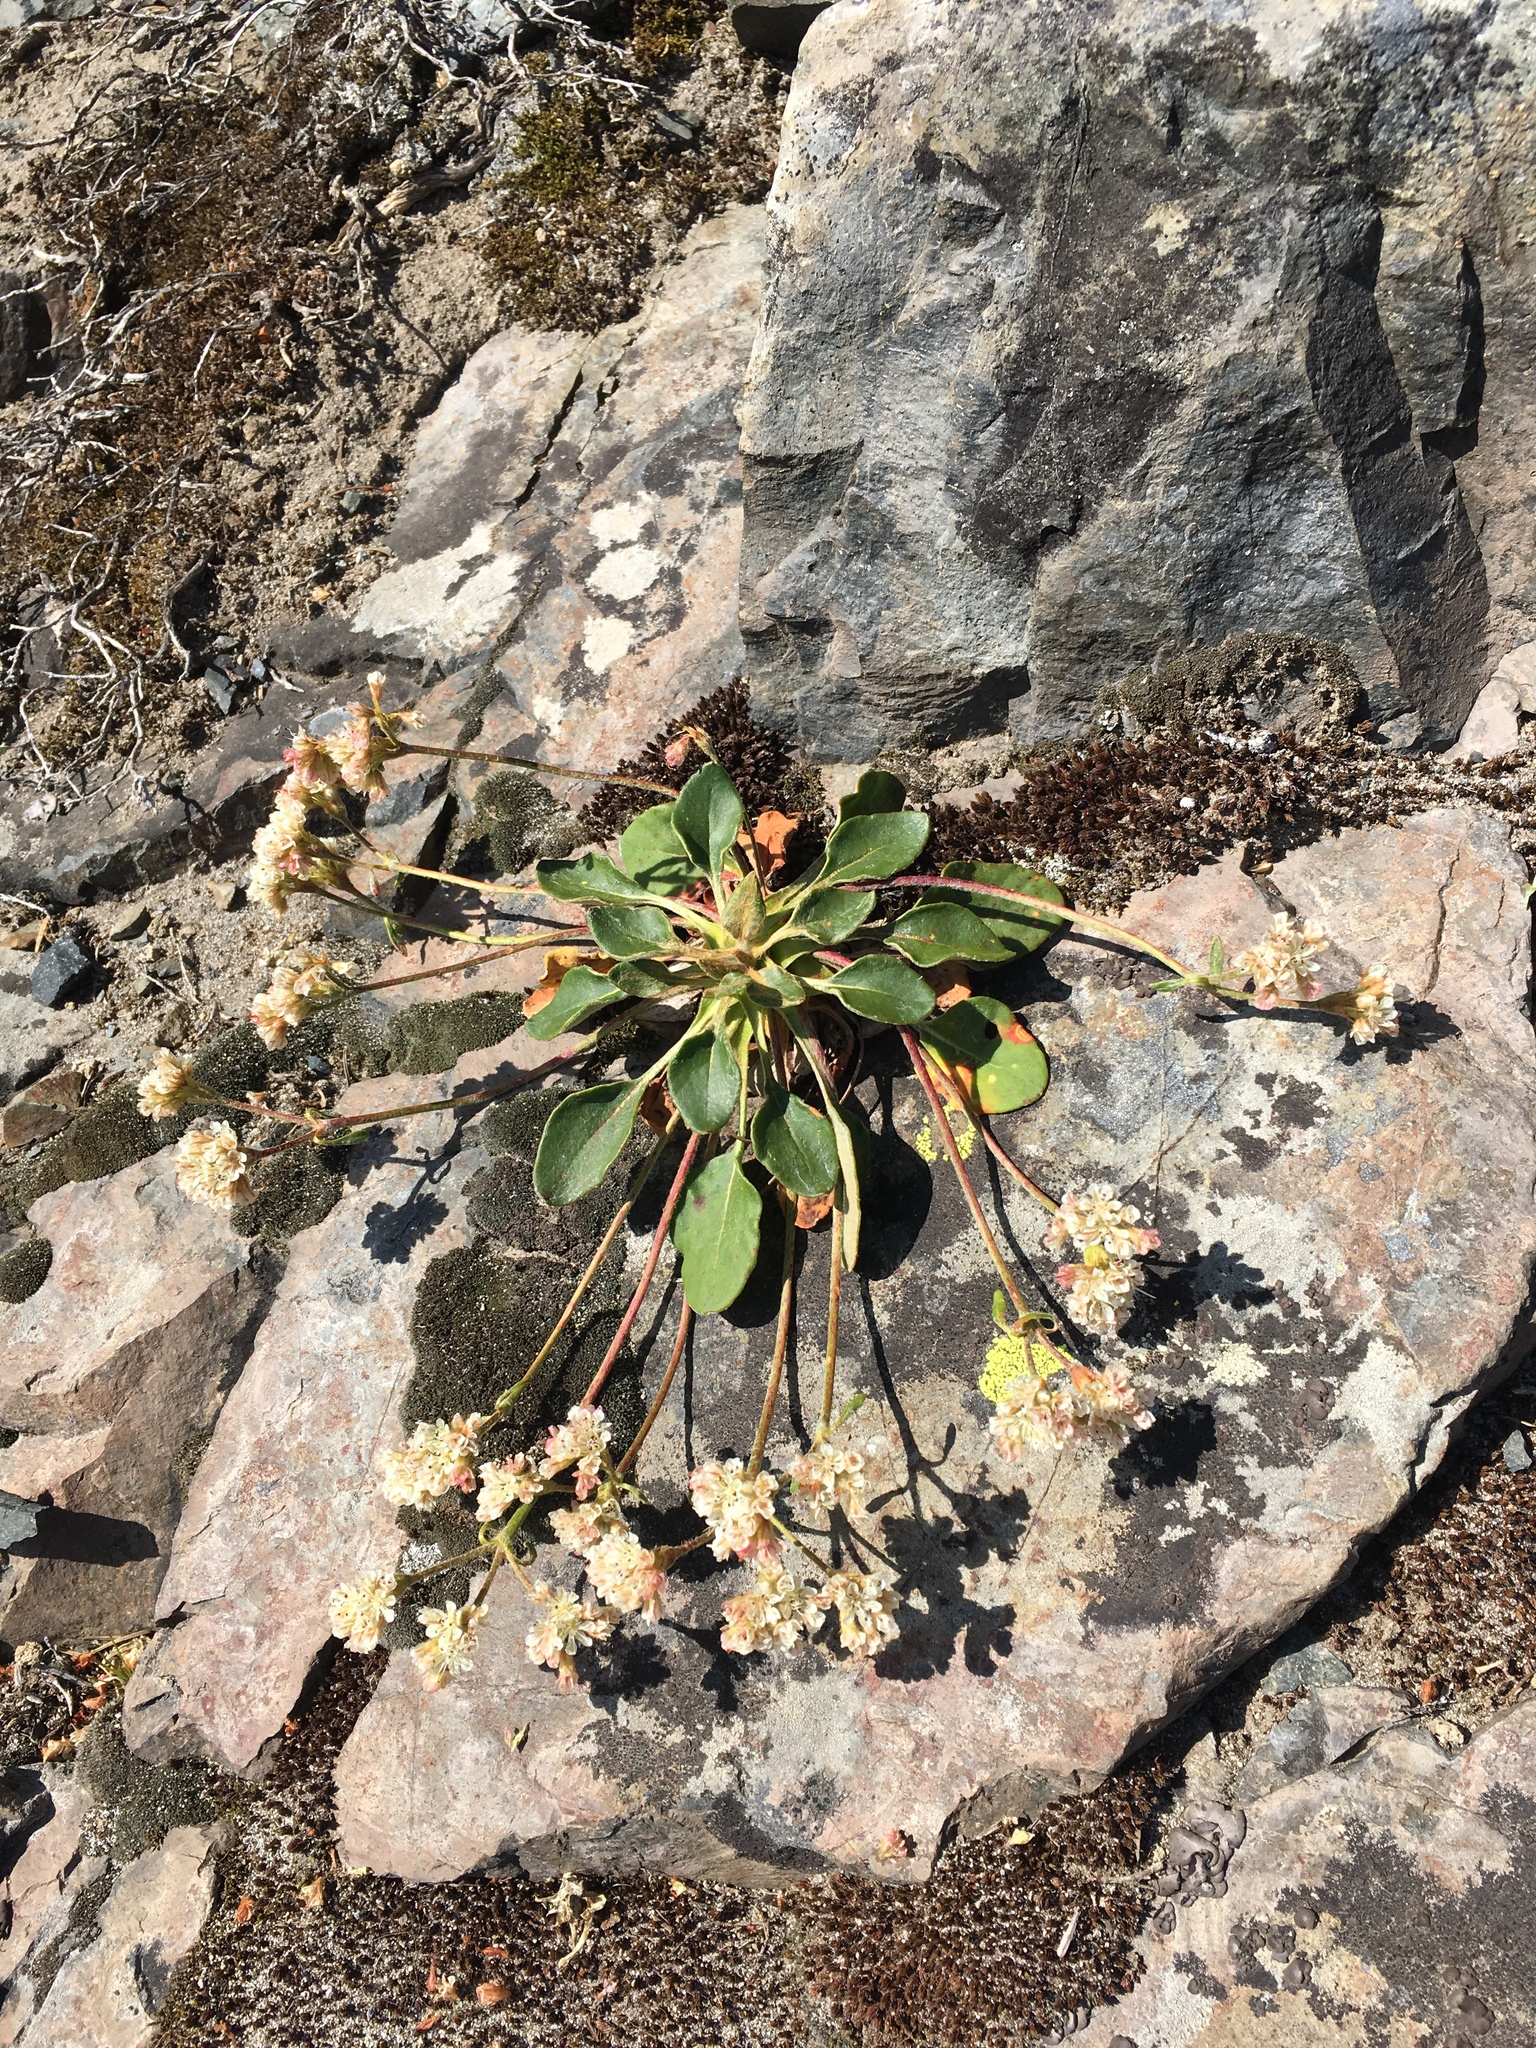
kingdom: Plantae
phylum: Tracheophyta
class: Magnoliopsida
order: Caryophyllales
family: Polygonaceae
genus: Eriogonum
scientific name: Eriogonum pyrolifolium
